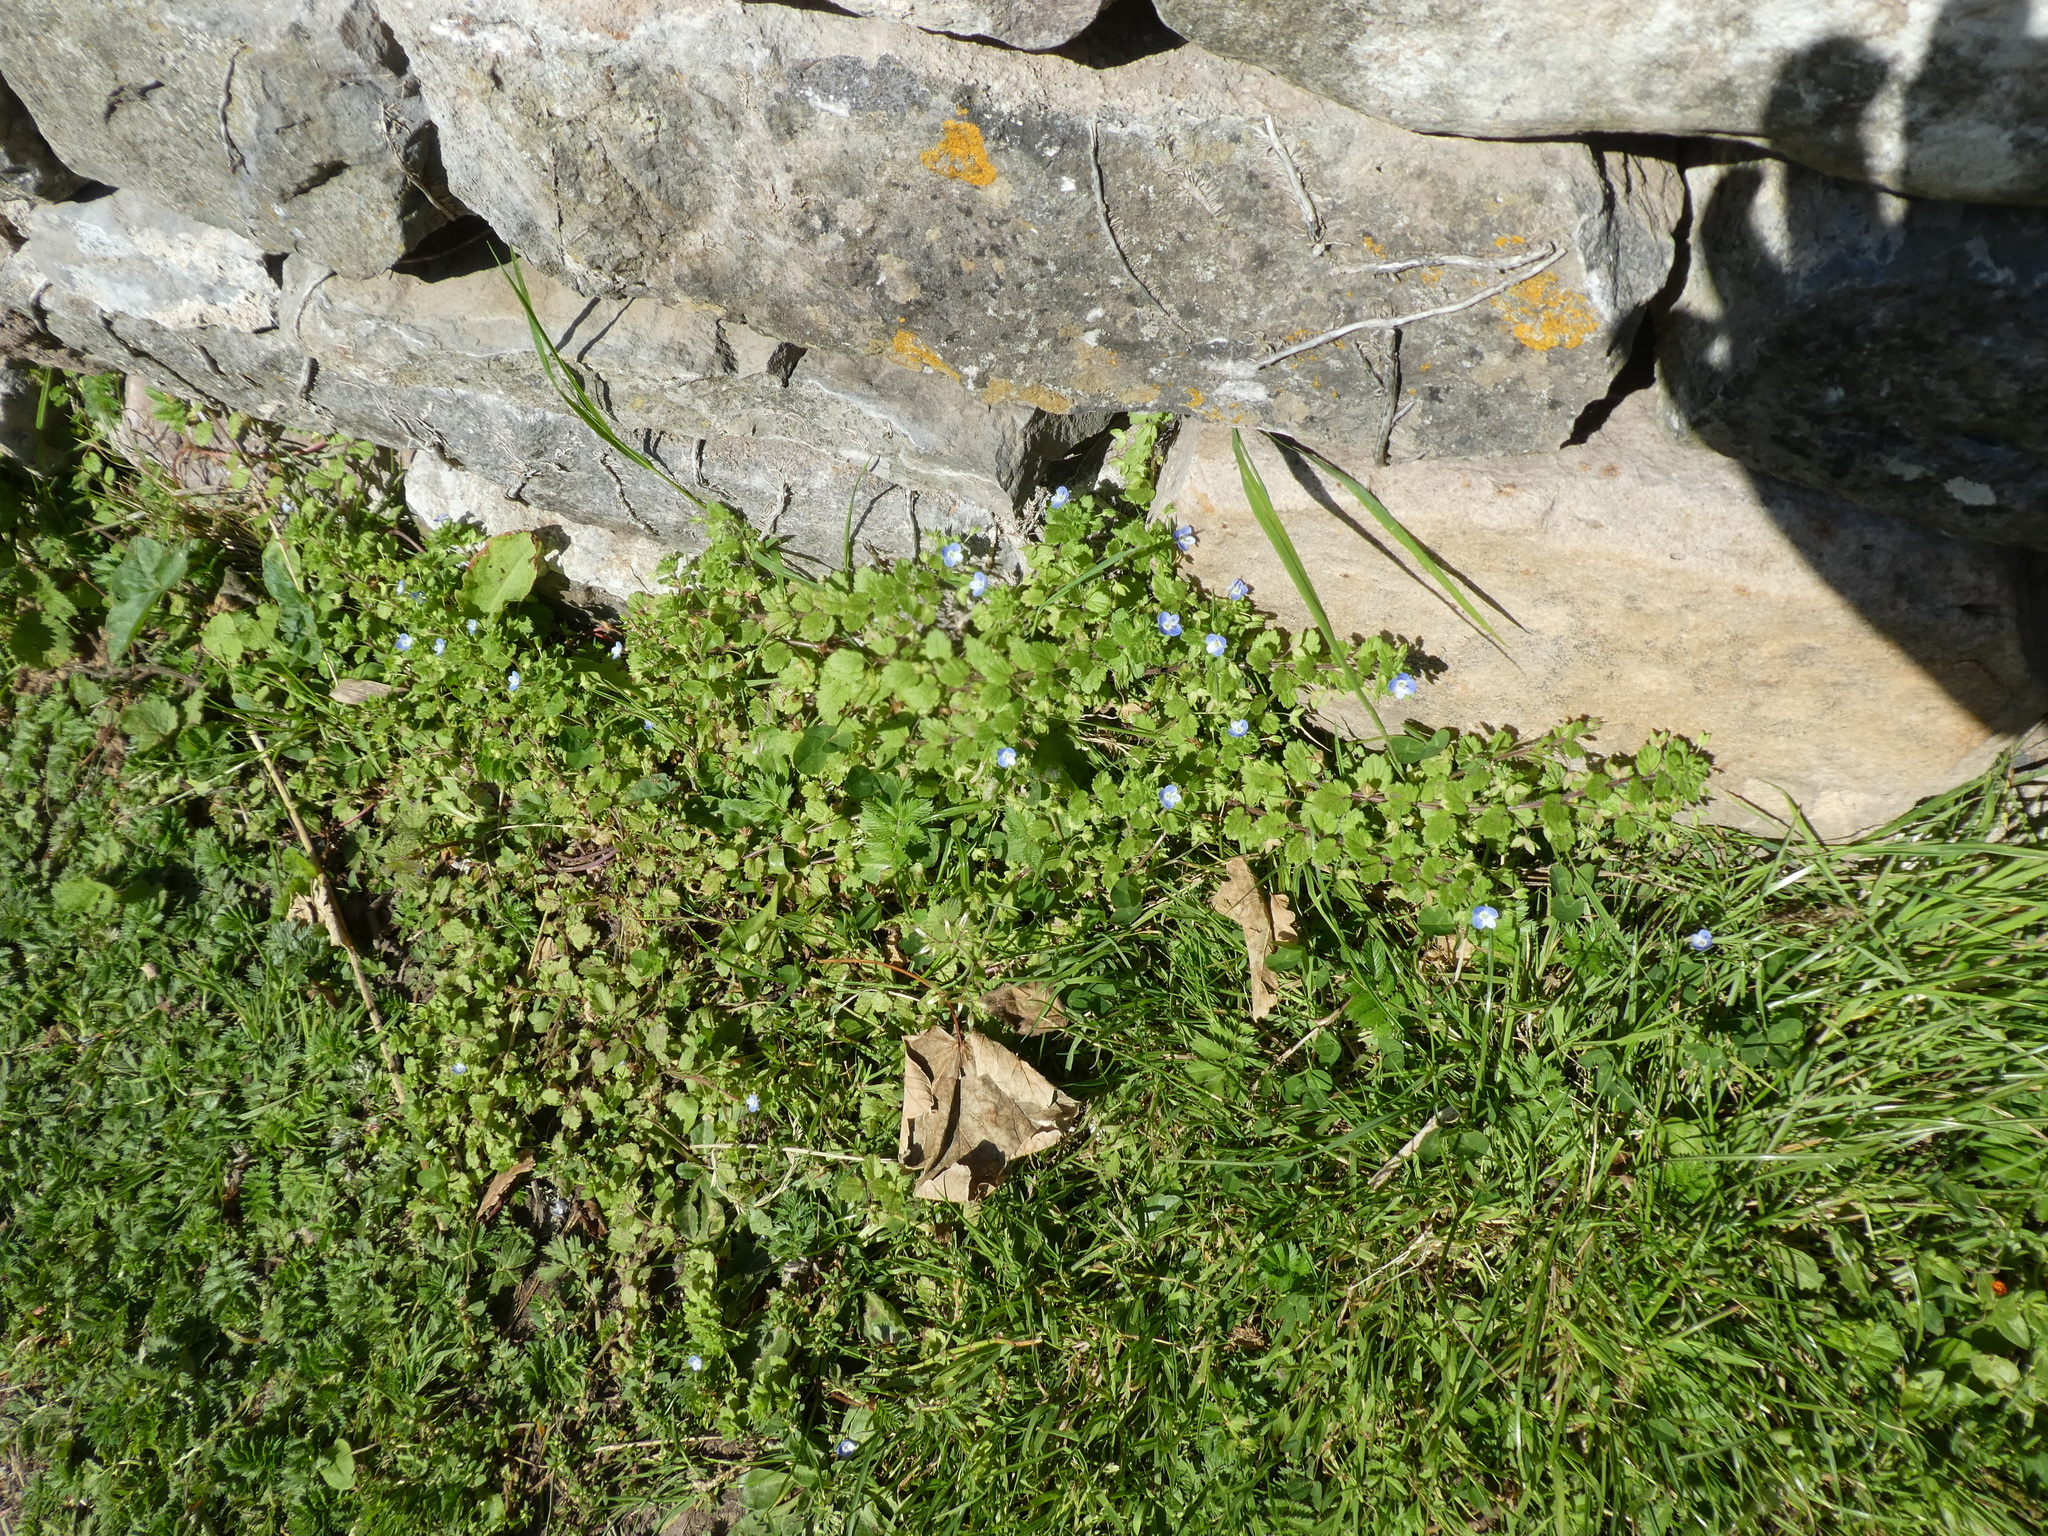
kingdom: Plantae
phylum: Tracheophyta
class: Magnoliopsida
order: Lamiales
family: Plantaginaceae
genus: Veronica
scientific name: Veronica persica
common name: Common field-speedwell
